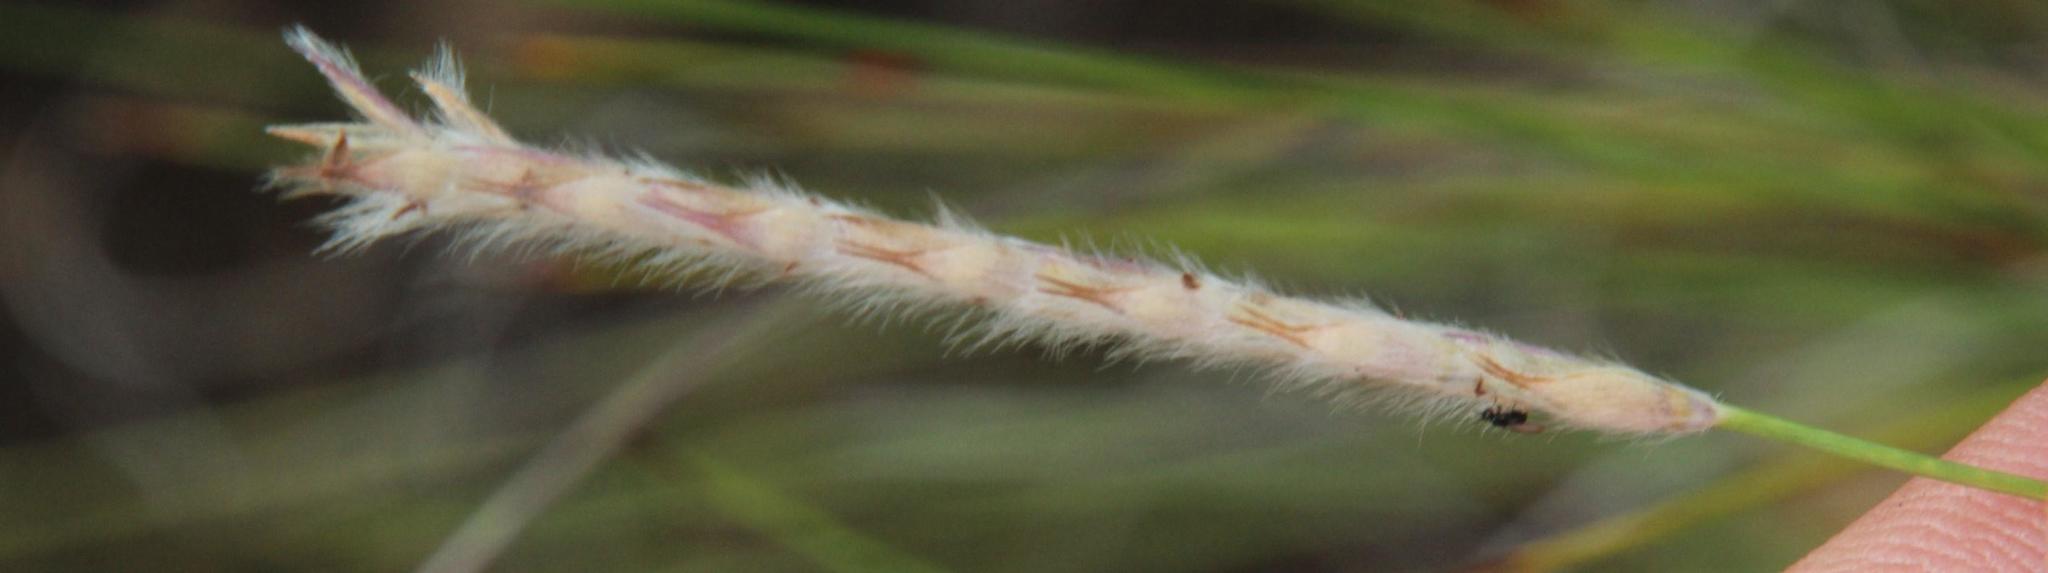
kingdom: Plantae
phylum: Tracheophyta
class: Liliopsida
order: Poales
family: Poaceae
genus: Elionurus
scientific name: Elionurus muticus
